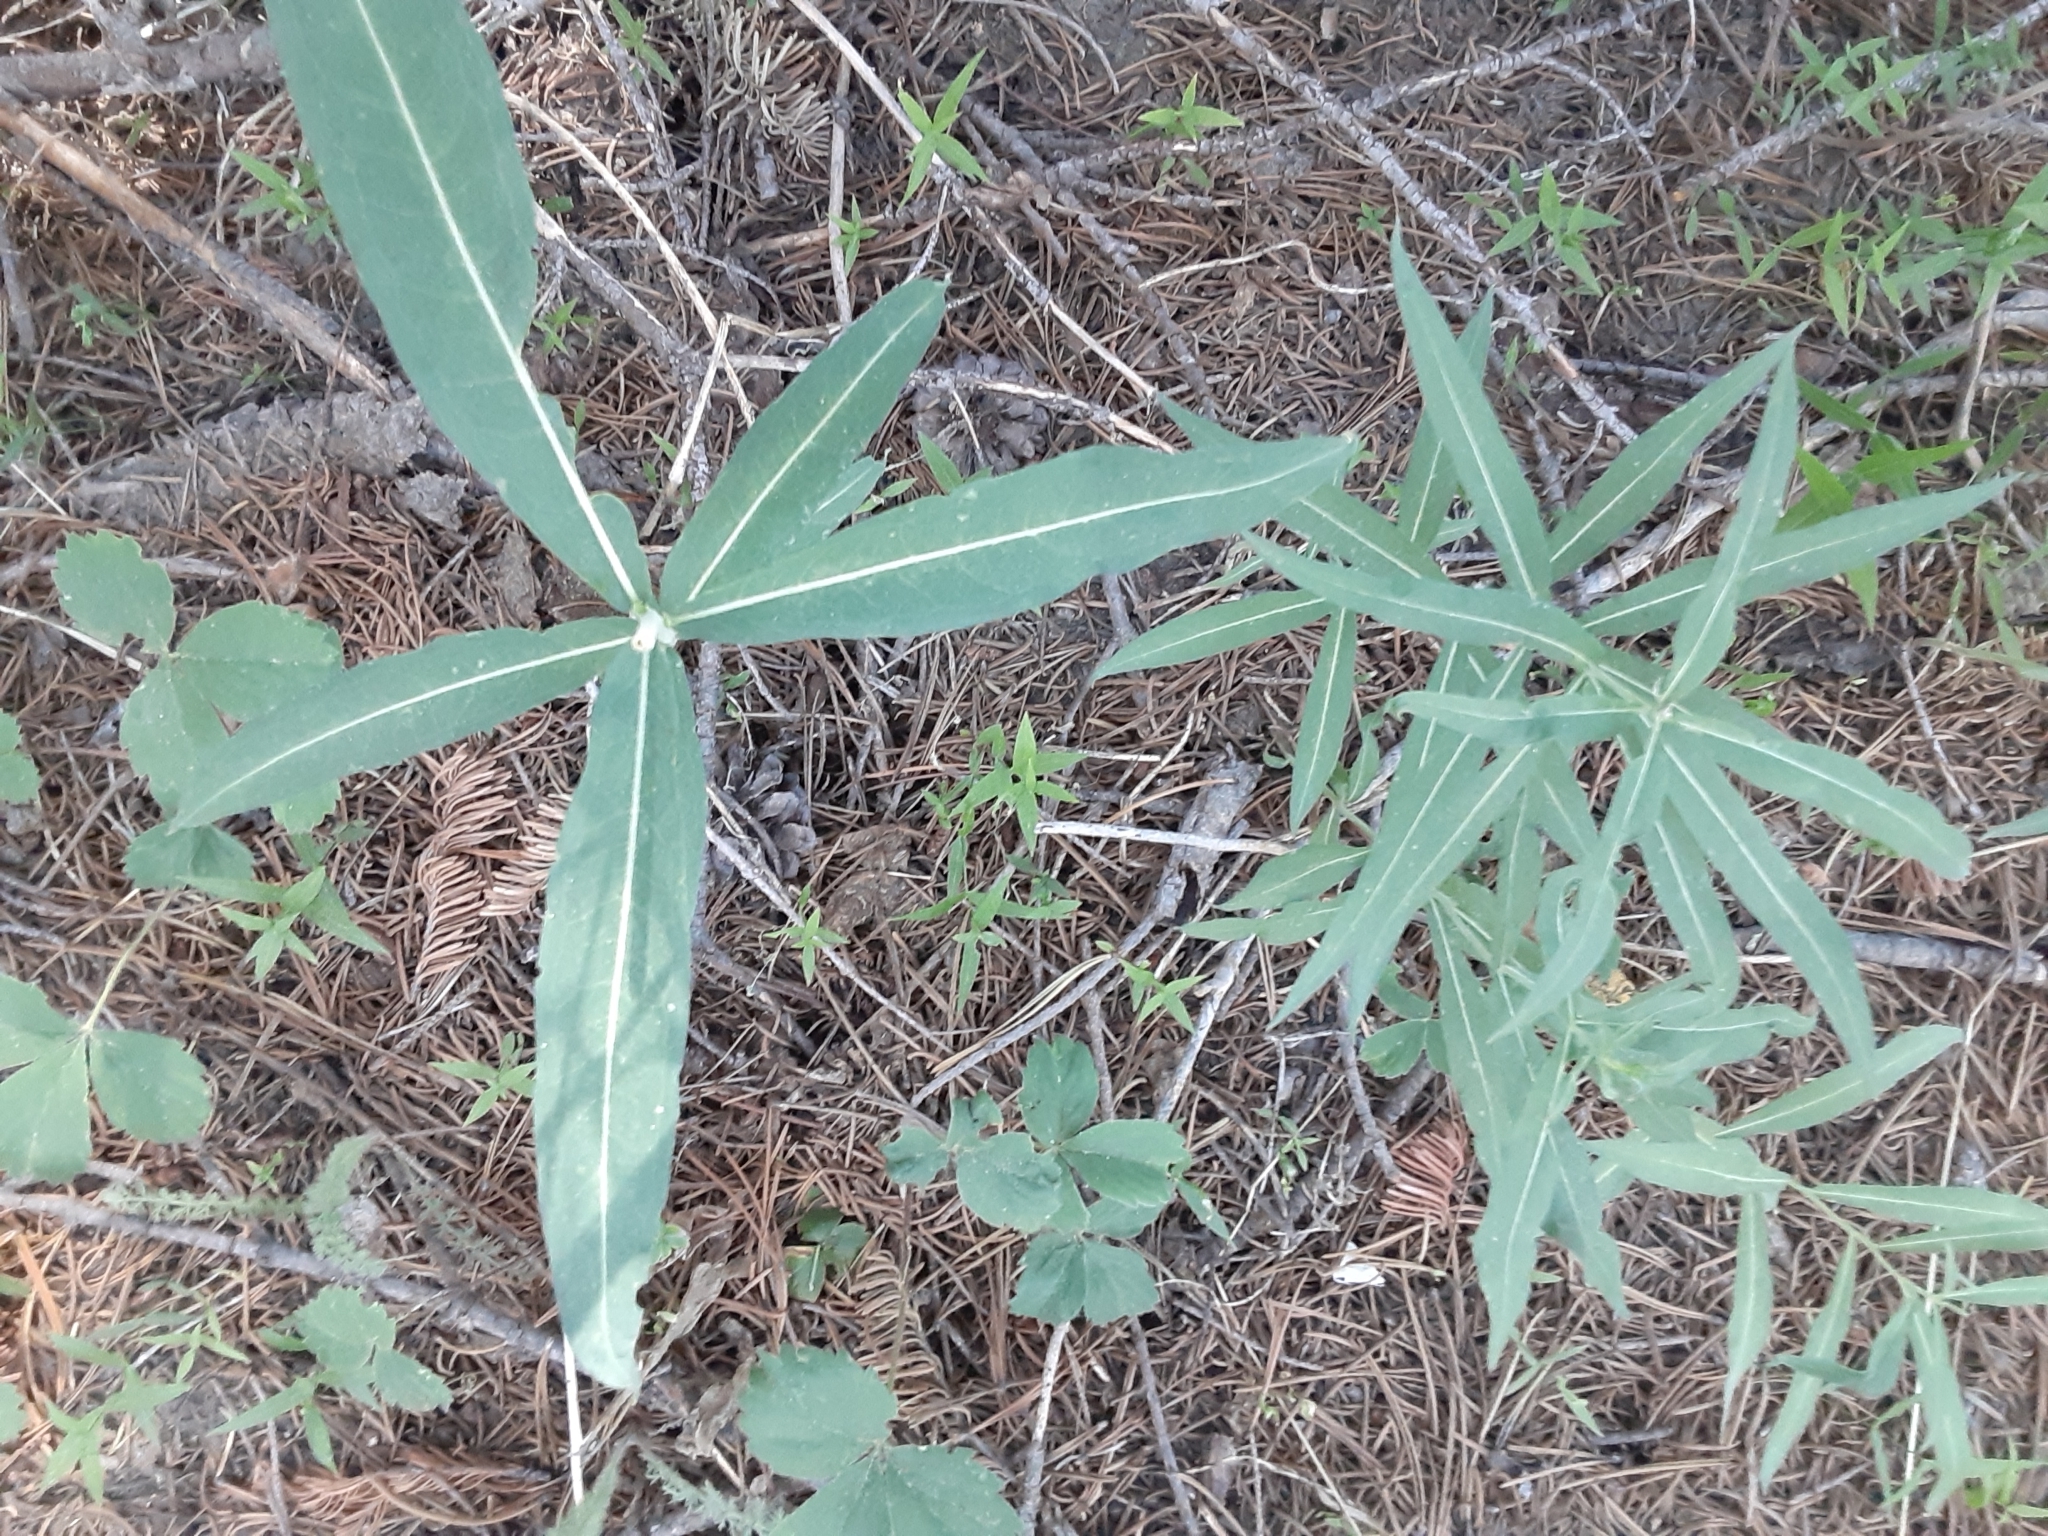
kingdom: Plantae
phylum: Tracheophyta
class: Magnoliopsida
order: Myrtales
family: Onagraceae
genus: Chamaenerion
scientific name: Chamaenerion angustifolium
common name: Fireweed
